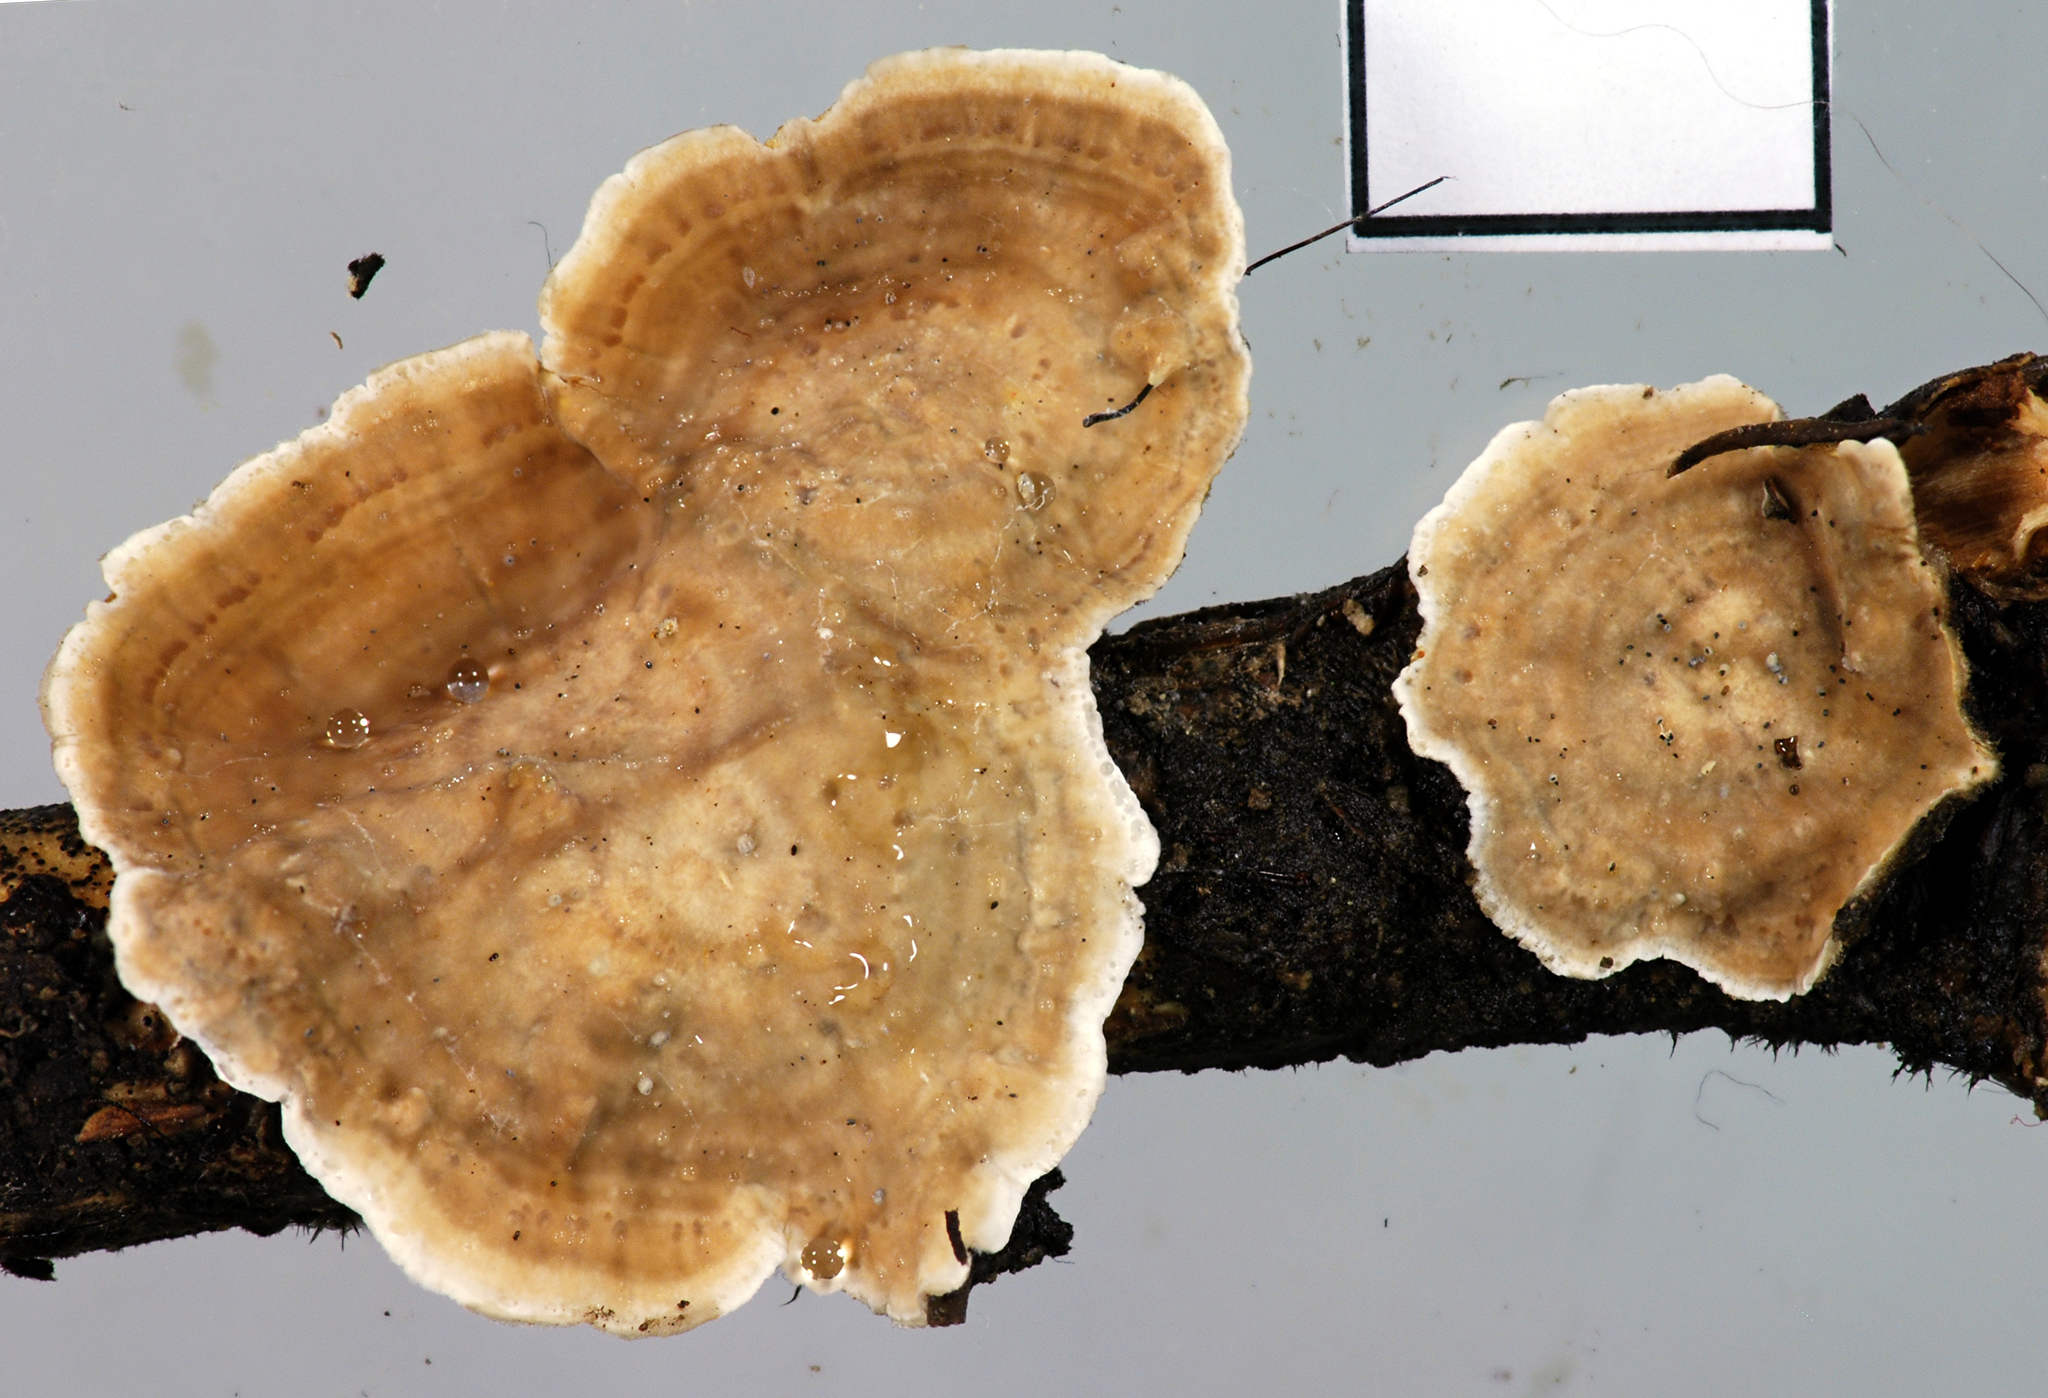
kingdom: Fungi
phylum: Basidiomycota
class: Agaricomycetes
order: Russulales
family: Stereaceae
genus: Stereum
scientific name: Stereum ostrea
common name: False turkeytail
